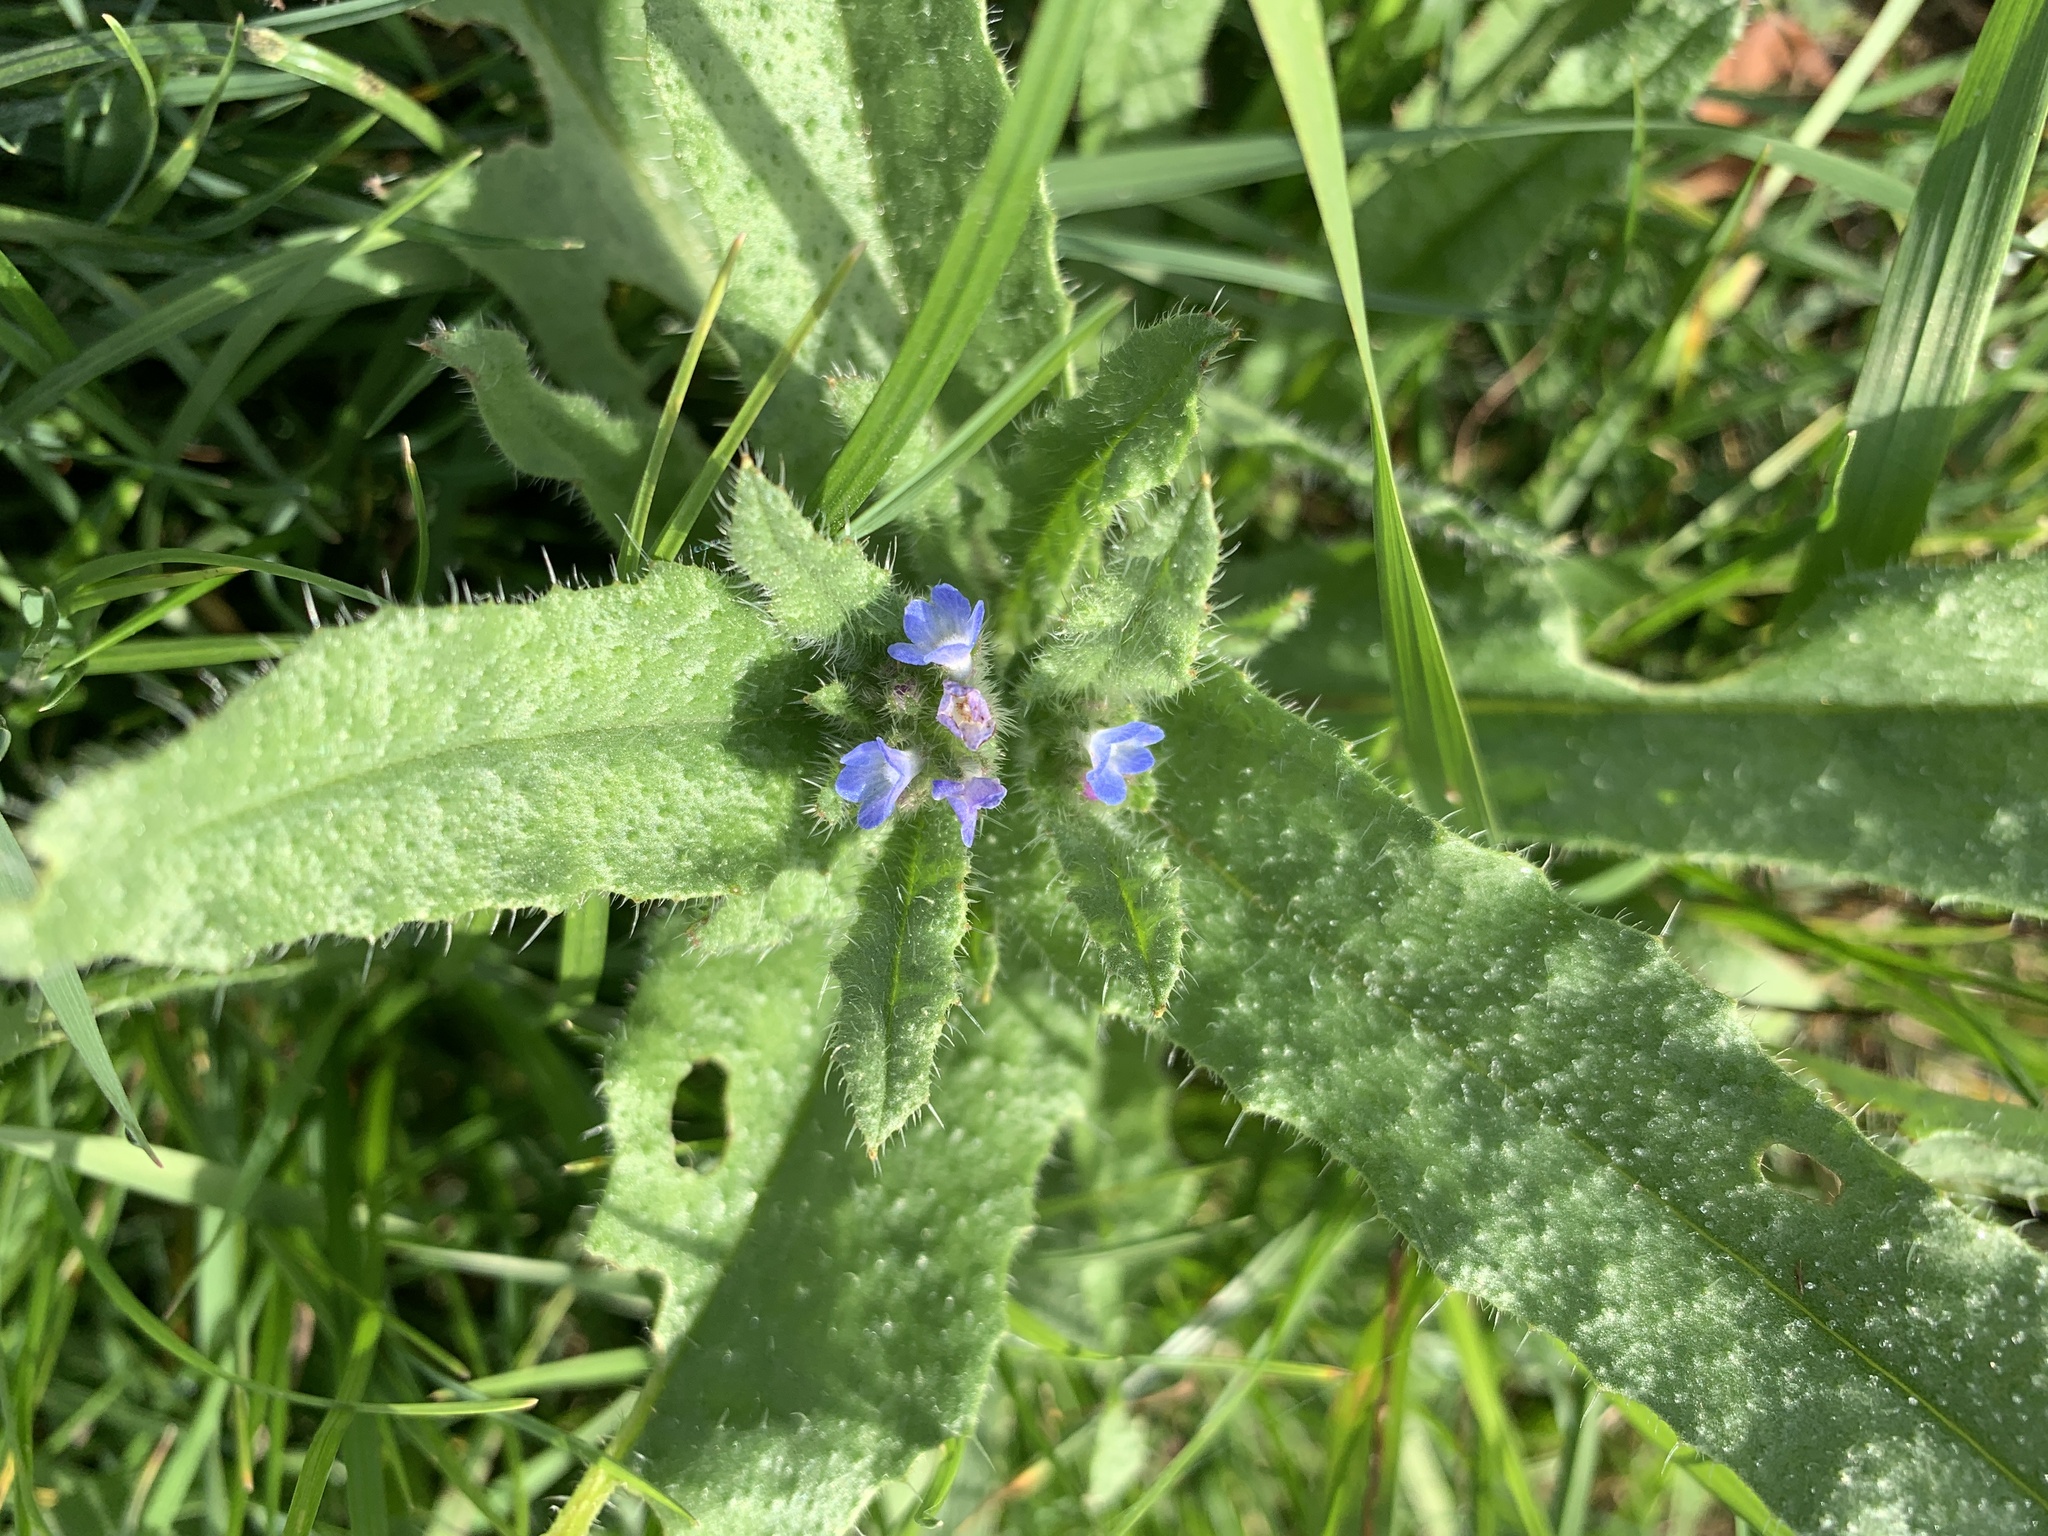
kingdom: Plantae
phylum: Tracheophyta
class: Magnoliopsida
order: Boraginales
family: Boraginaceae
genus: Lycopsis
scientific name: Lycopsis arvensis
